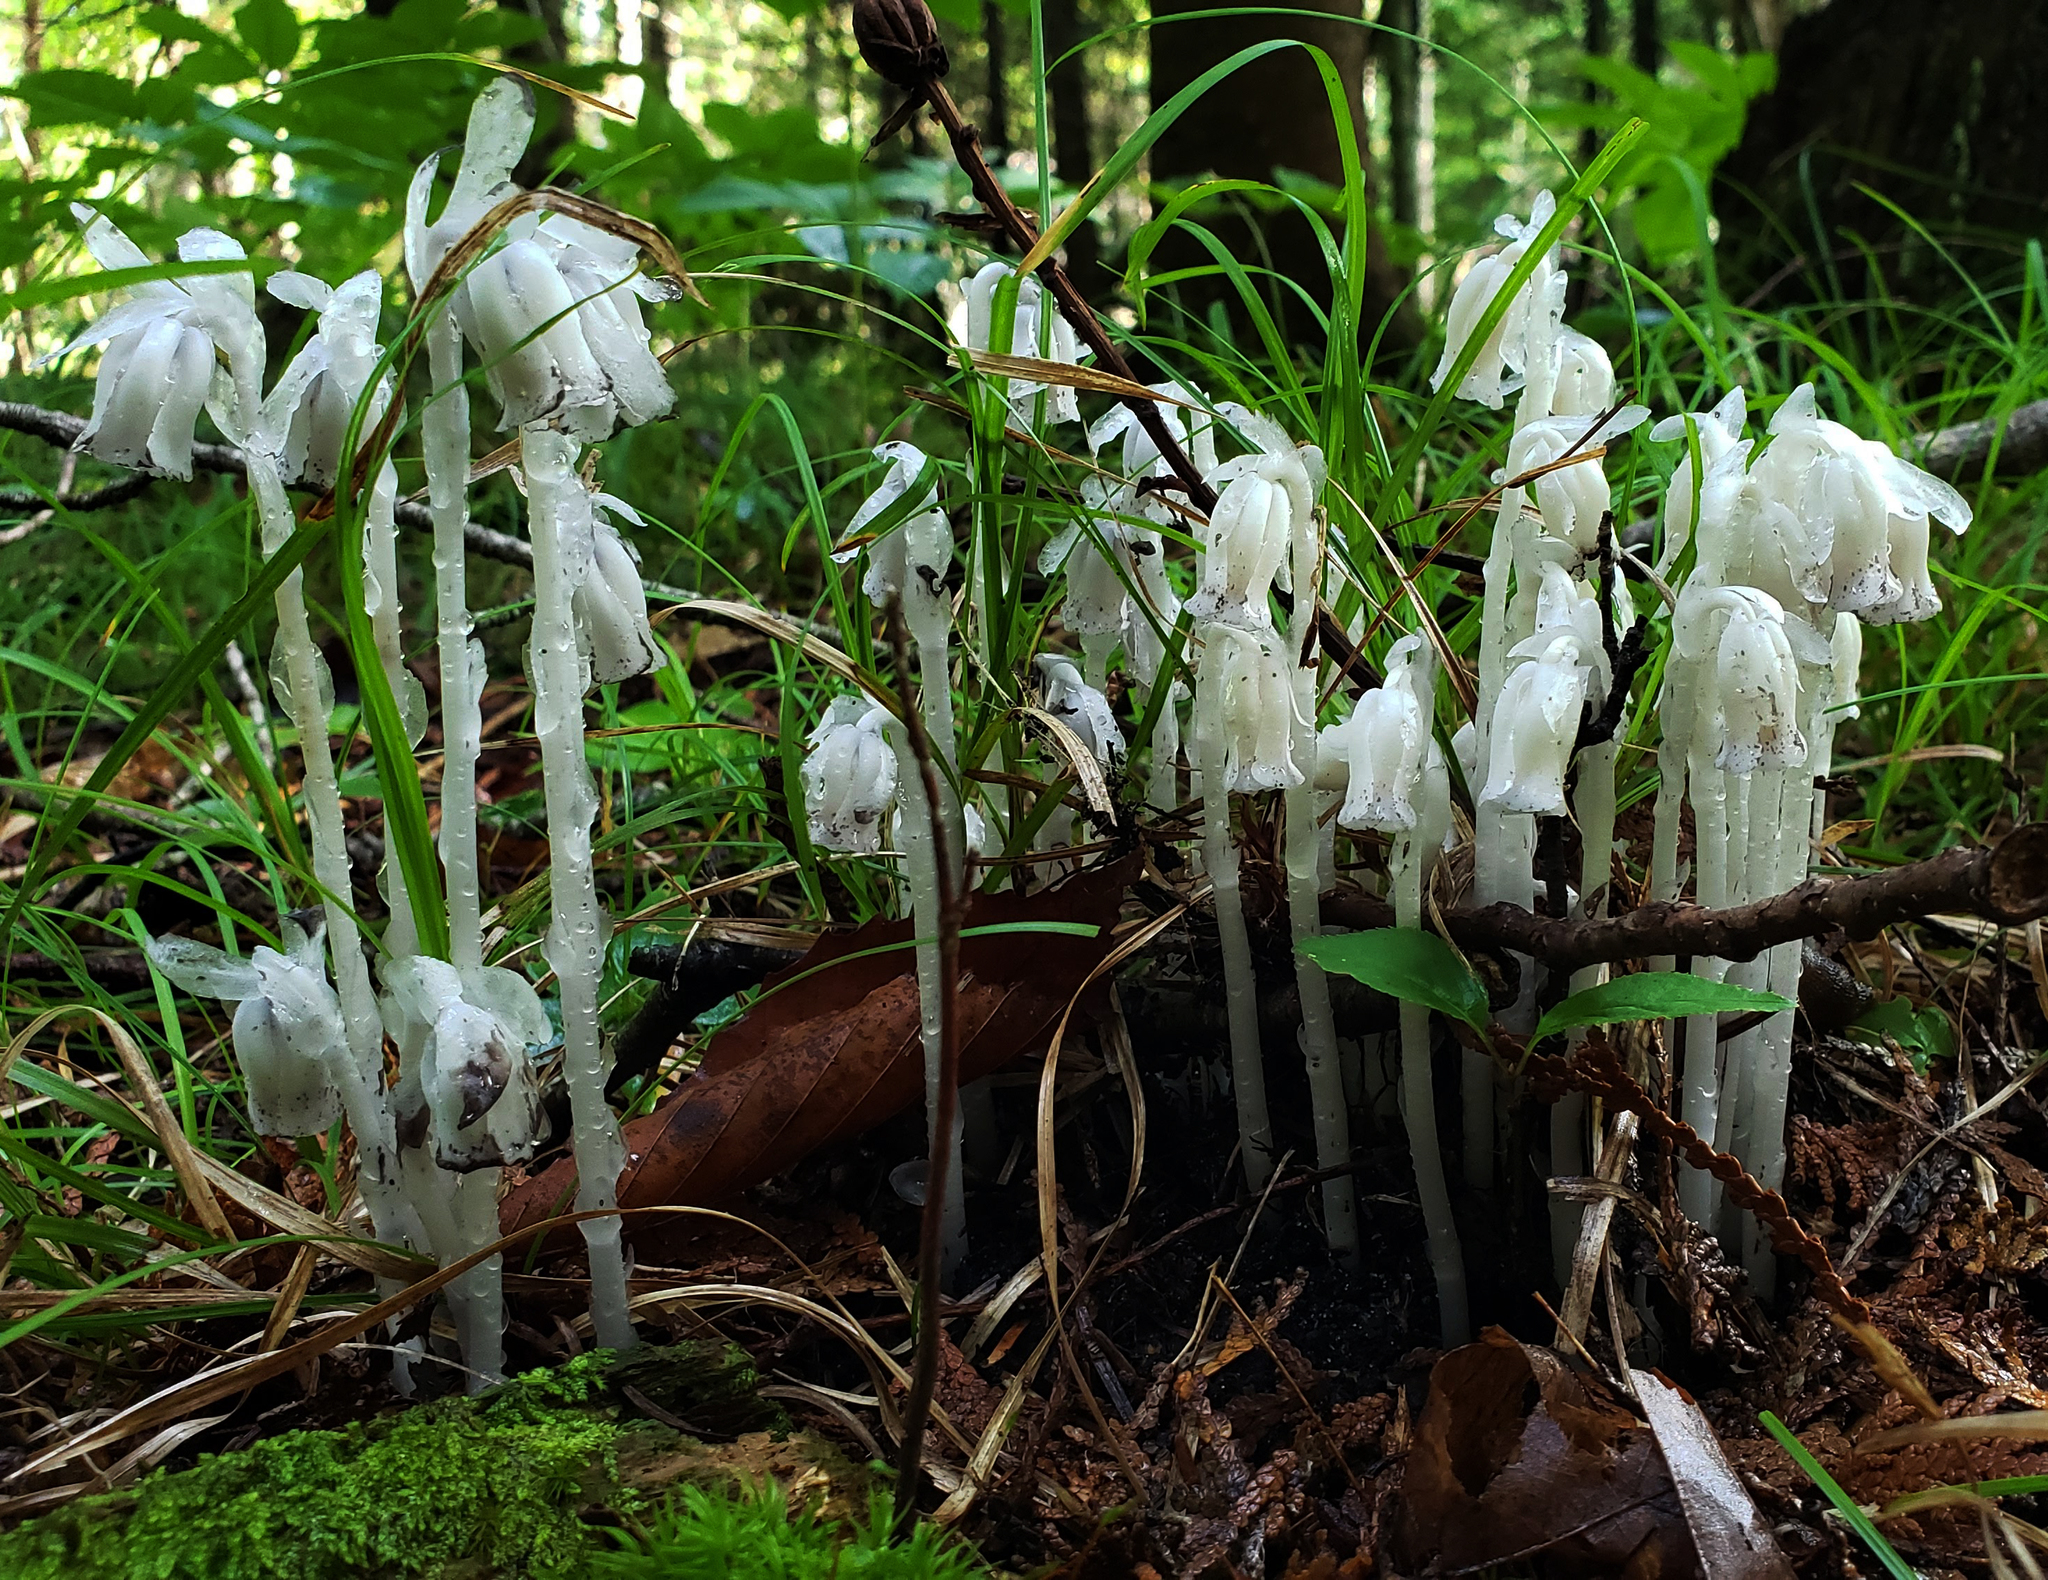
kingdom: Plantae
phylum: Tracheophyta
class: Magnoliopsida
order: Ericales
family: Ericaceae
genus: Monotropa
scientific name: Monotropa uniflora
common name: Convulsion root
